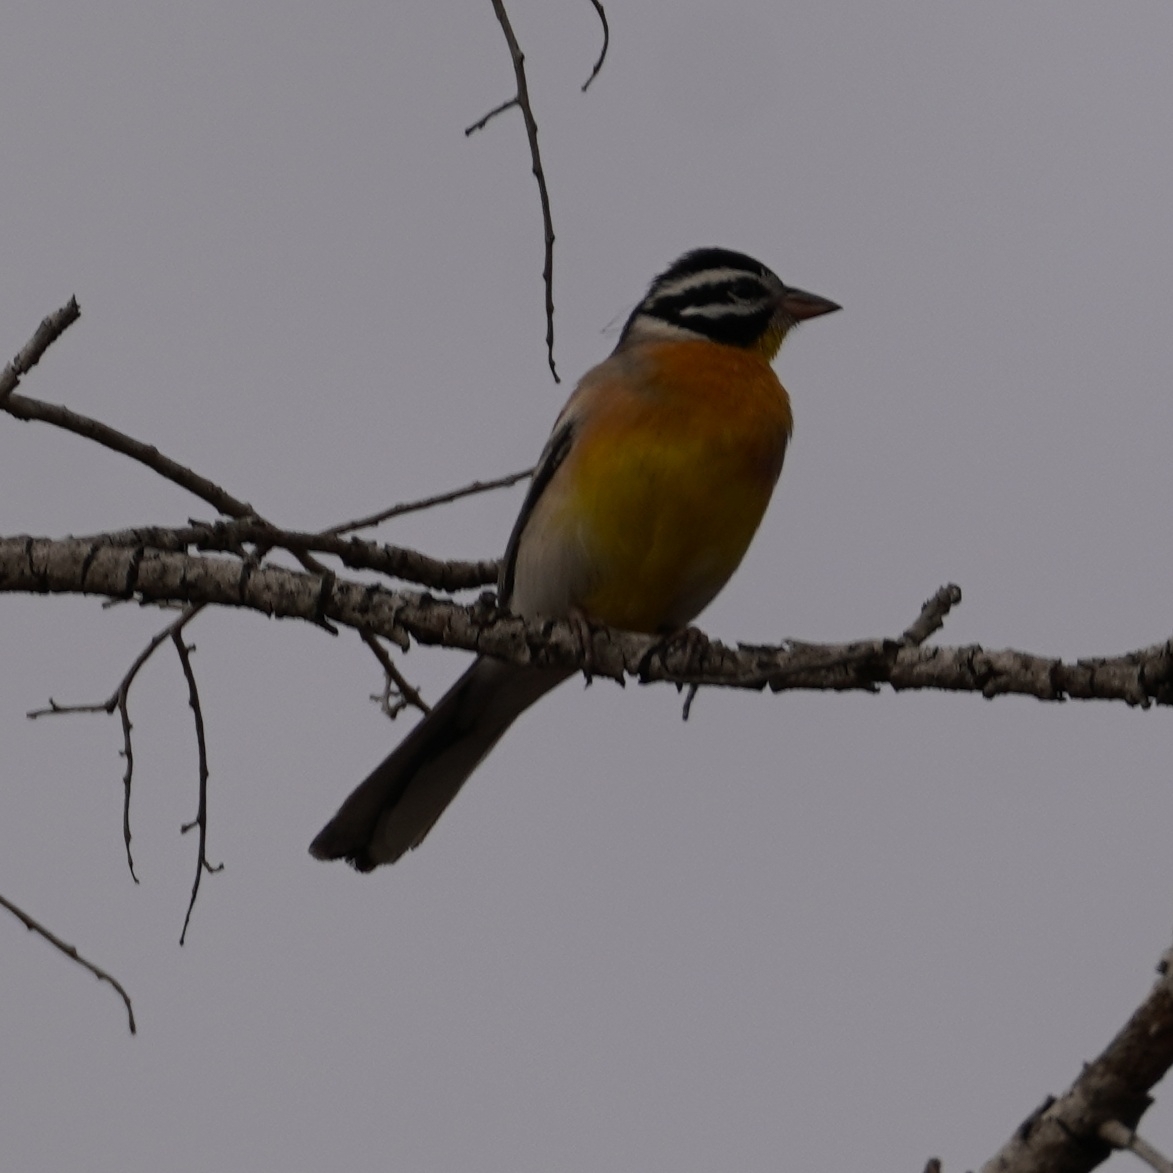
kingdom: Animalia
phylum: Chordata
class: Aves
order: Passeriformes
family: Emberizidae
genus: Emberiza
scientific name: Emberiza flaviventris
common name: Golden-breasted bunting
